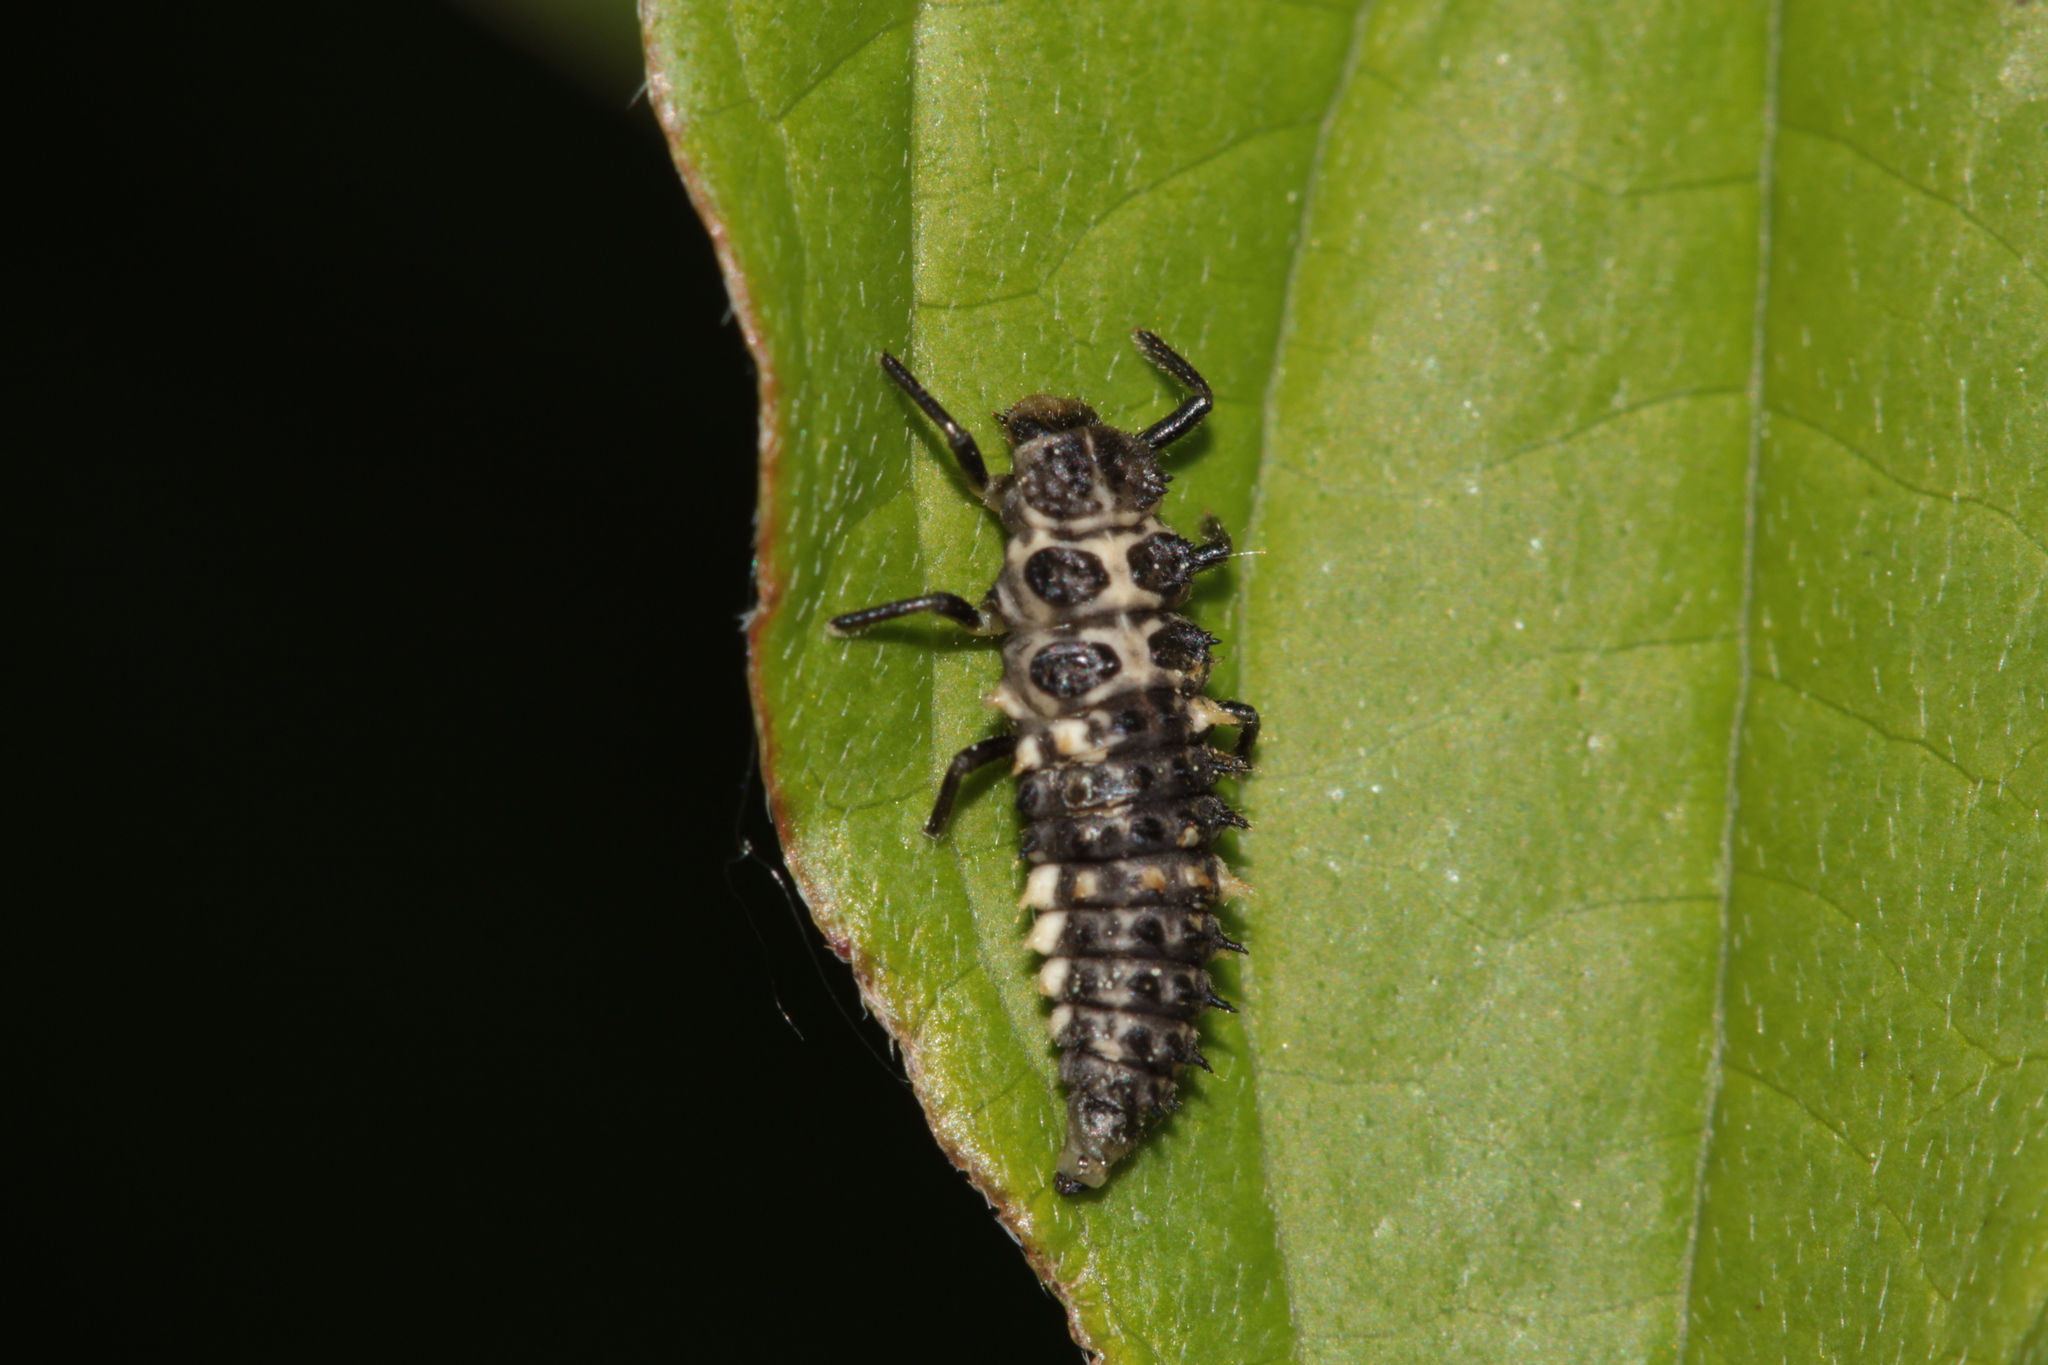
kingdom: Animalia
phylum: Arthropoda
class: Insecta
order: Coleoptera
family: Coccinellidae
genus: Calvia
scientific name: Calvia quatuordecimguttata
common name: Cream-spot ladybird
